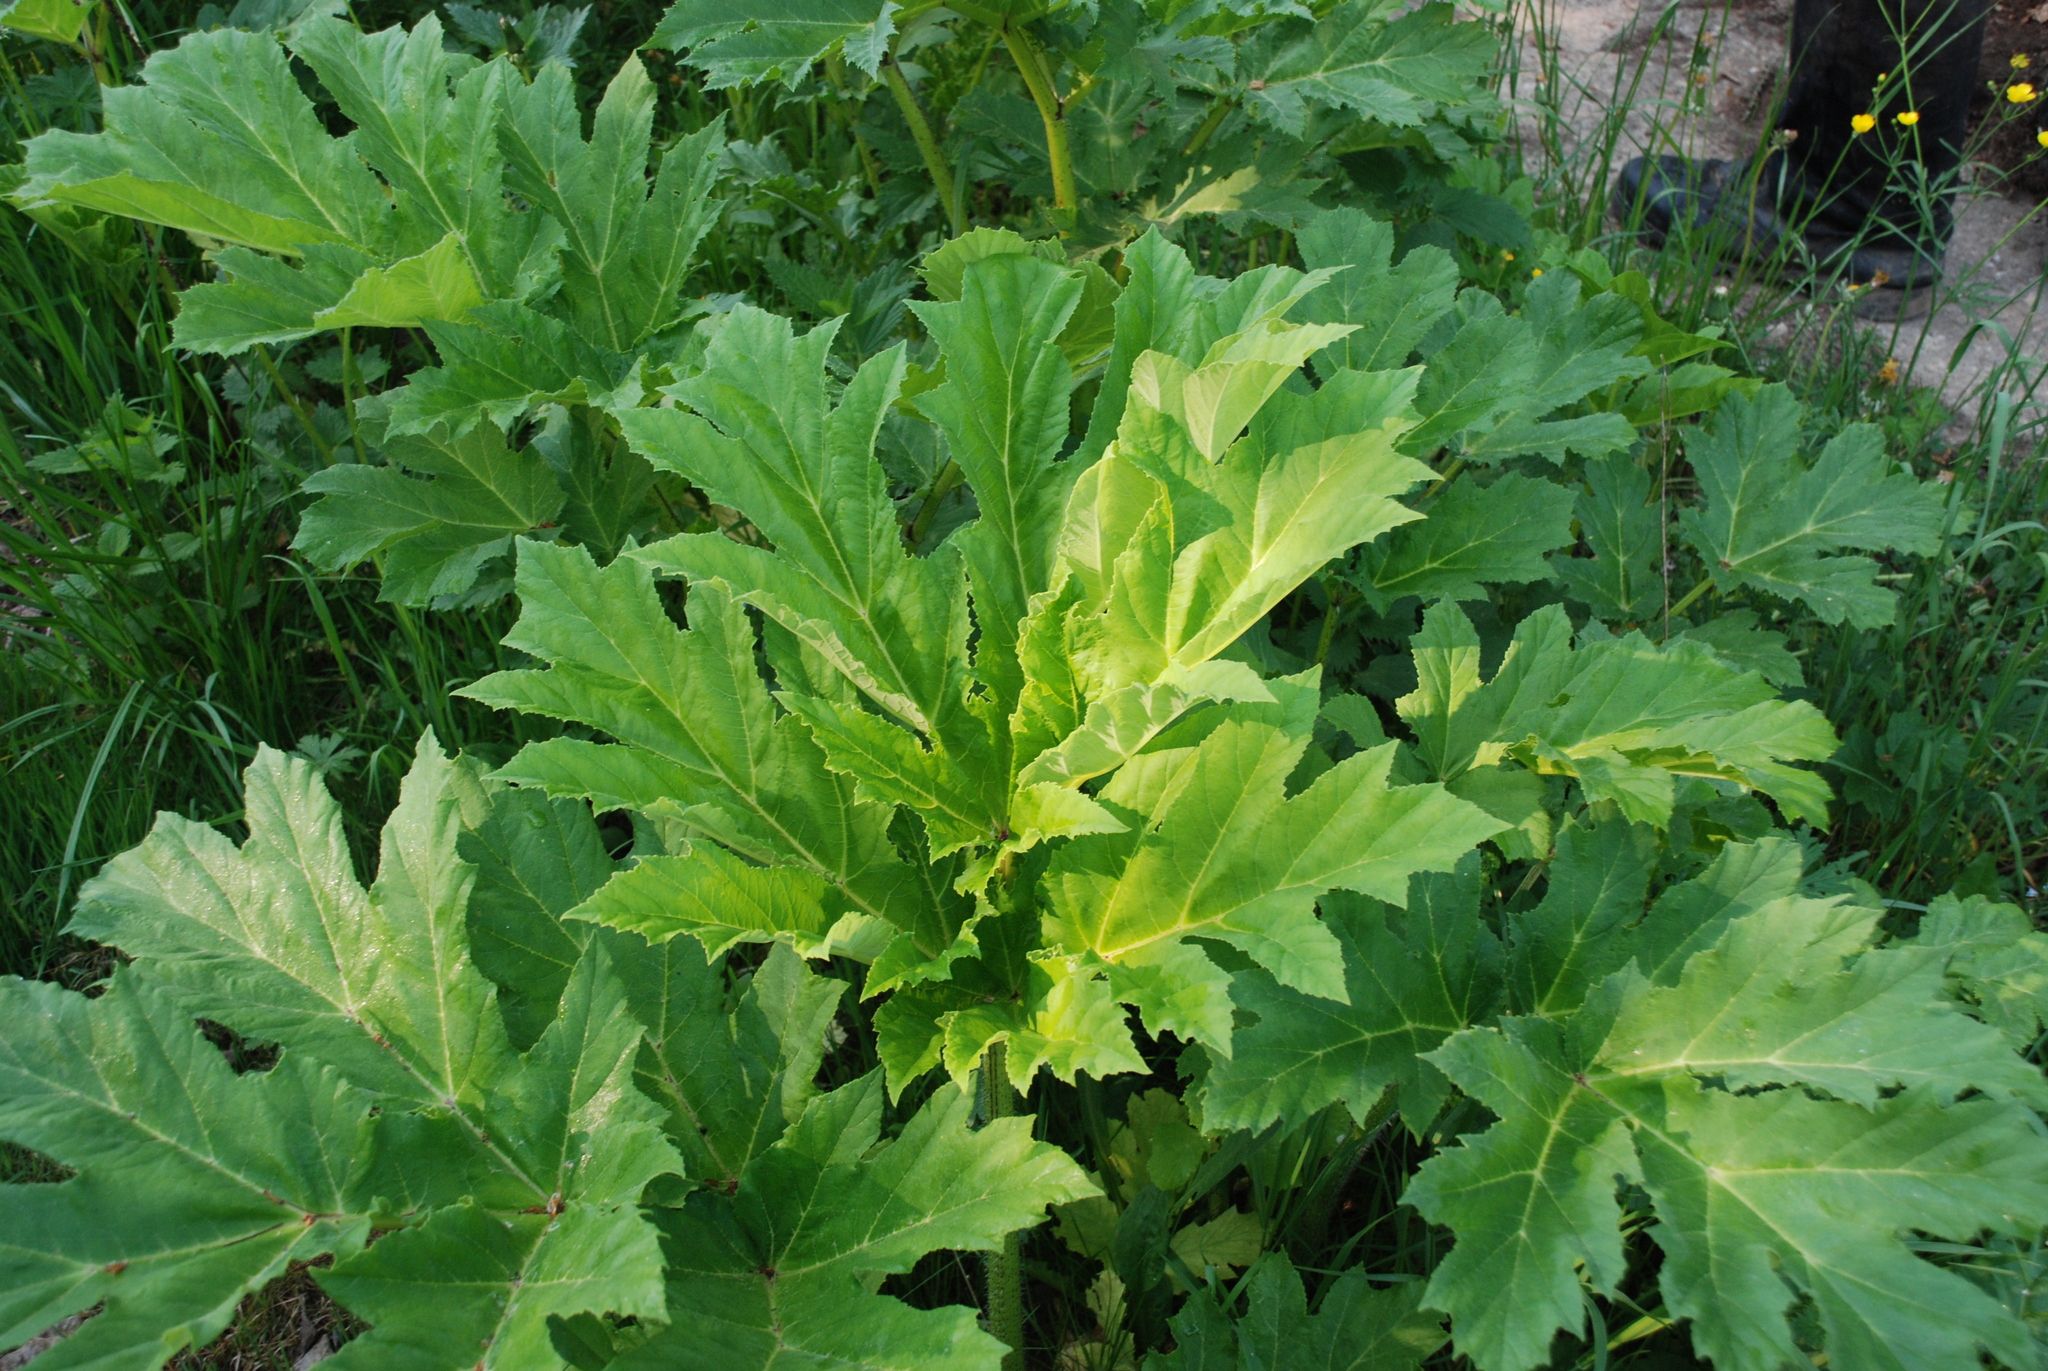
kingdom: Plantae
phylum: Tracheophyta
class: Magnoliopsida
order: Apiales
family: Apiaceae
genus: Heracleum
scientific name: Heracleum sosnowskyi
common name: Sosnowsky's hogweed
